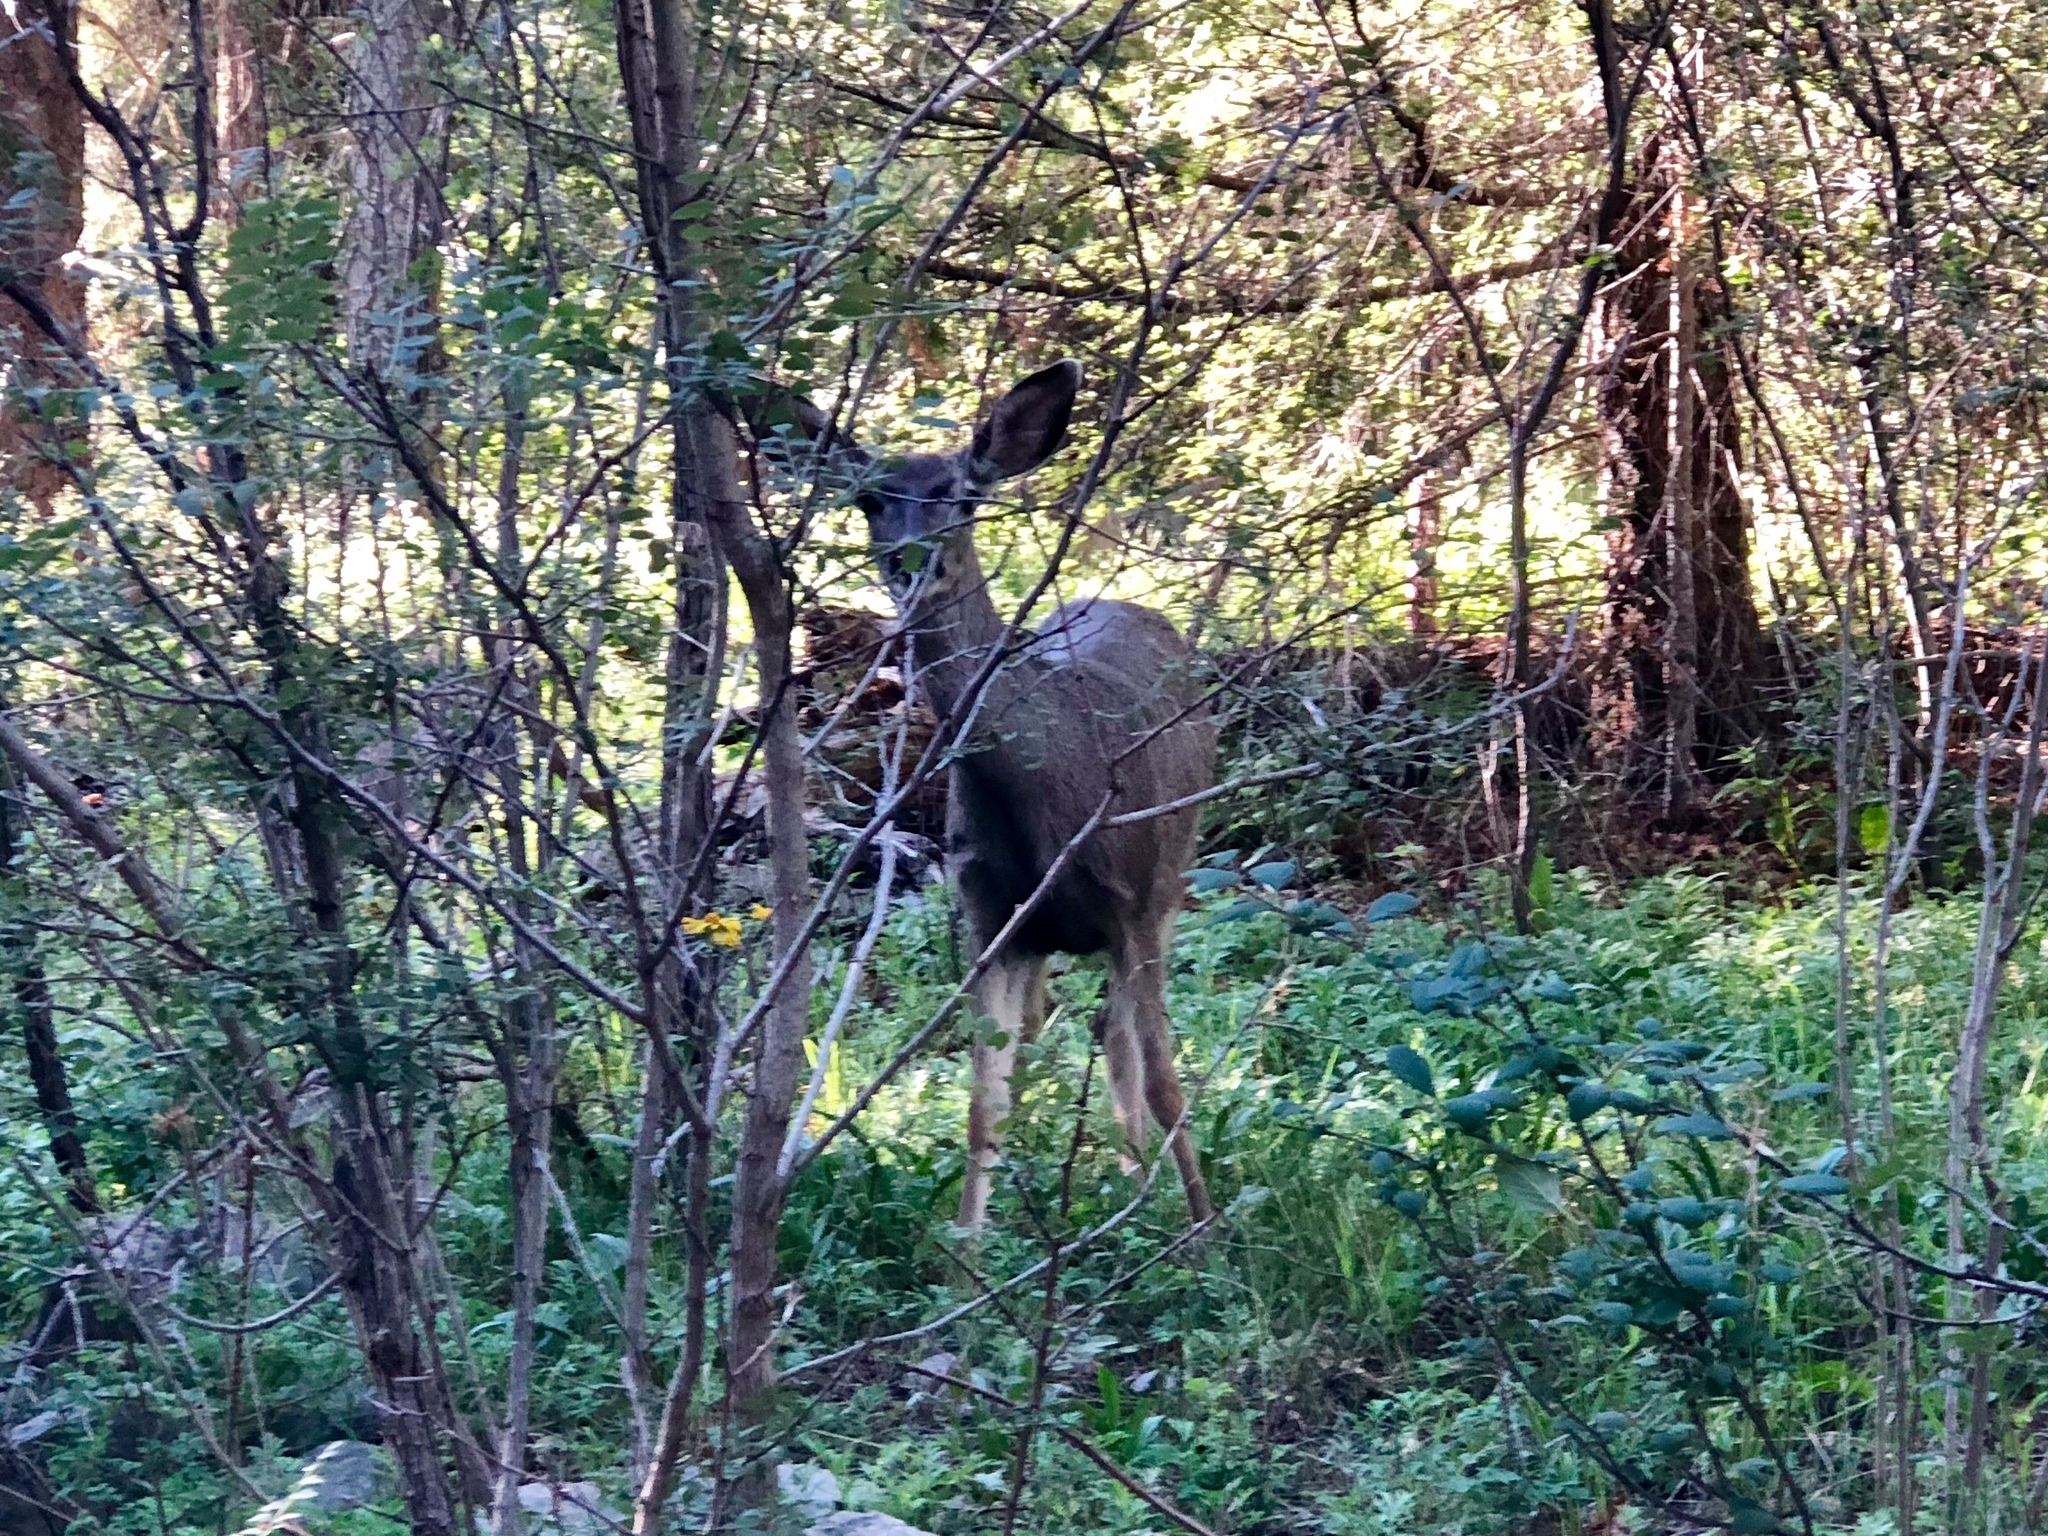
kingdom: Animalia
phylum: Chordata
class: Mammalia
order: Artiodactyla
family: Cervidae
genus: Odocoileus
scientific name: Odocoileus hemionus
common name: Mule deer
